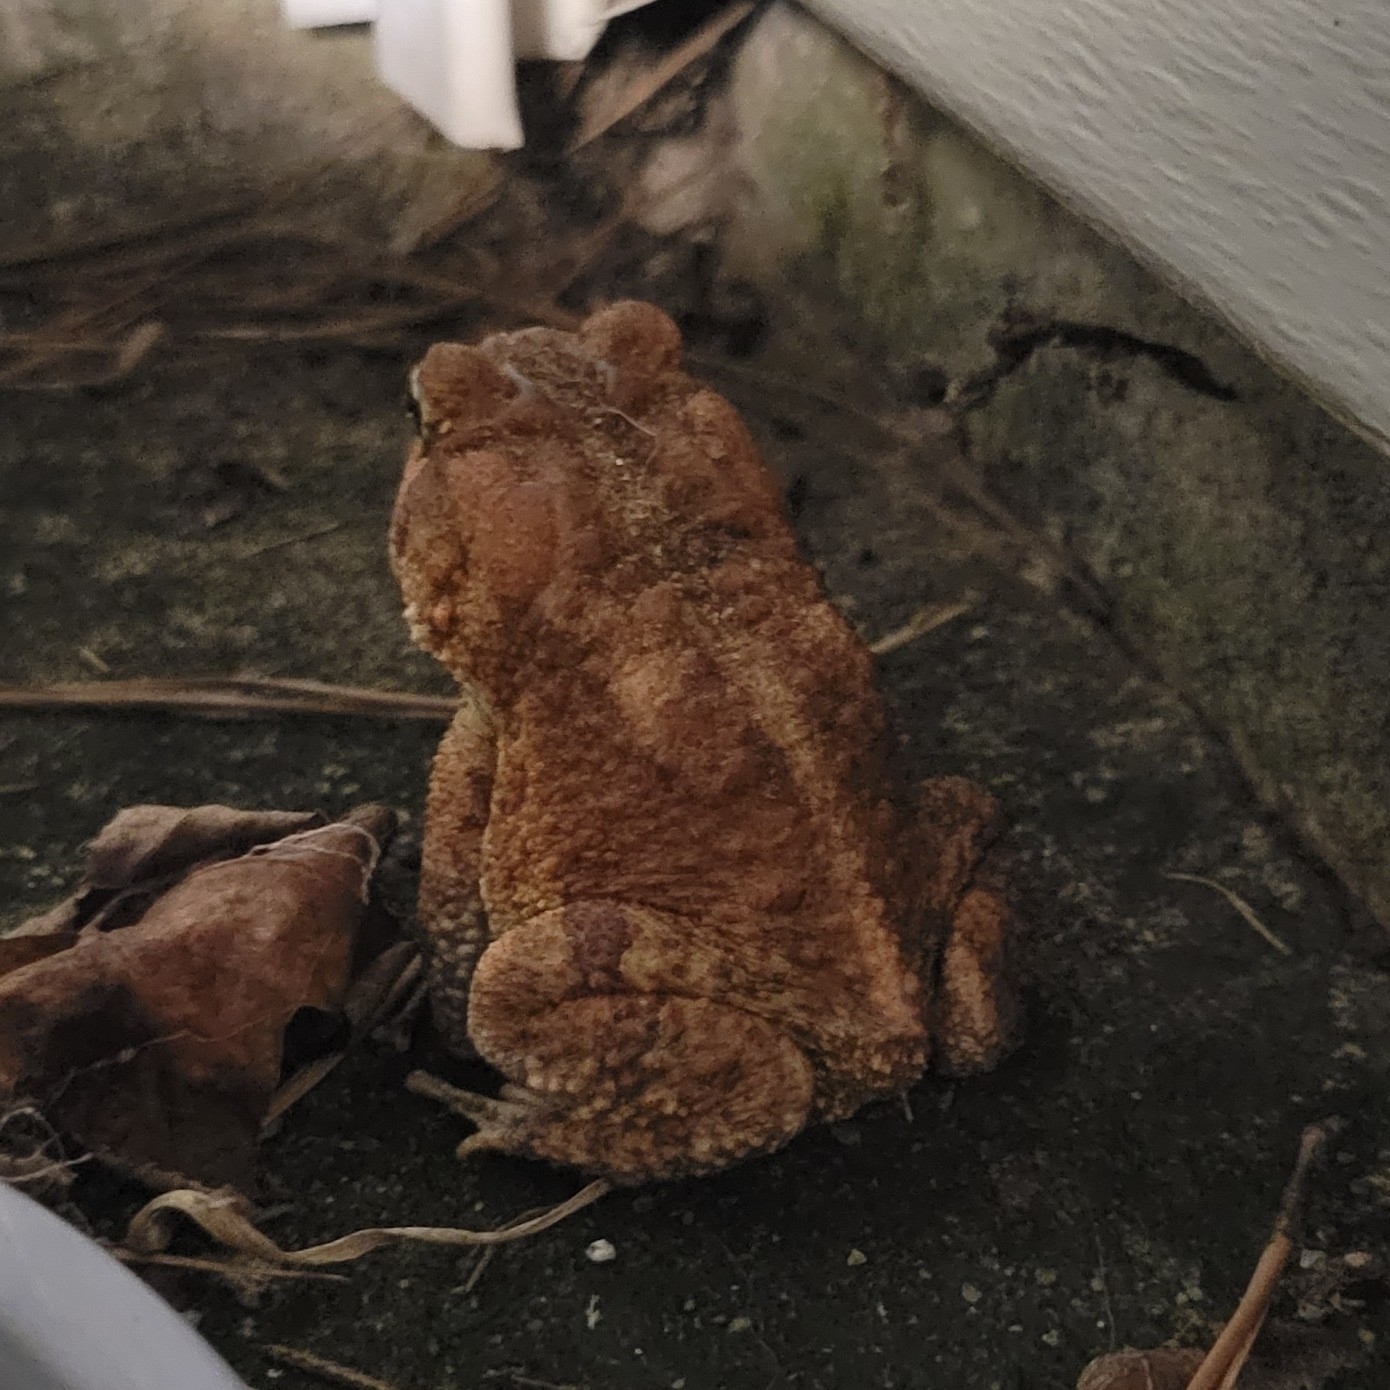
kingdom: Animalia
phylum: Chordata
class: Amphibia
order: Anura
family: Bufonidae
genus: Anaxyrus
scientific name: Anaxyrus terrestris
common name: Southern toad
